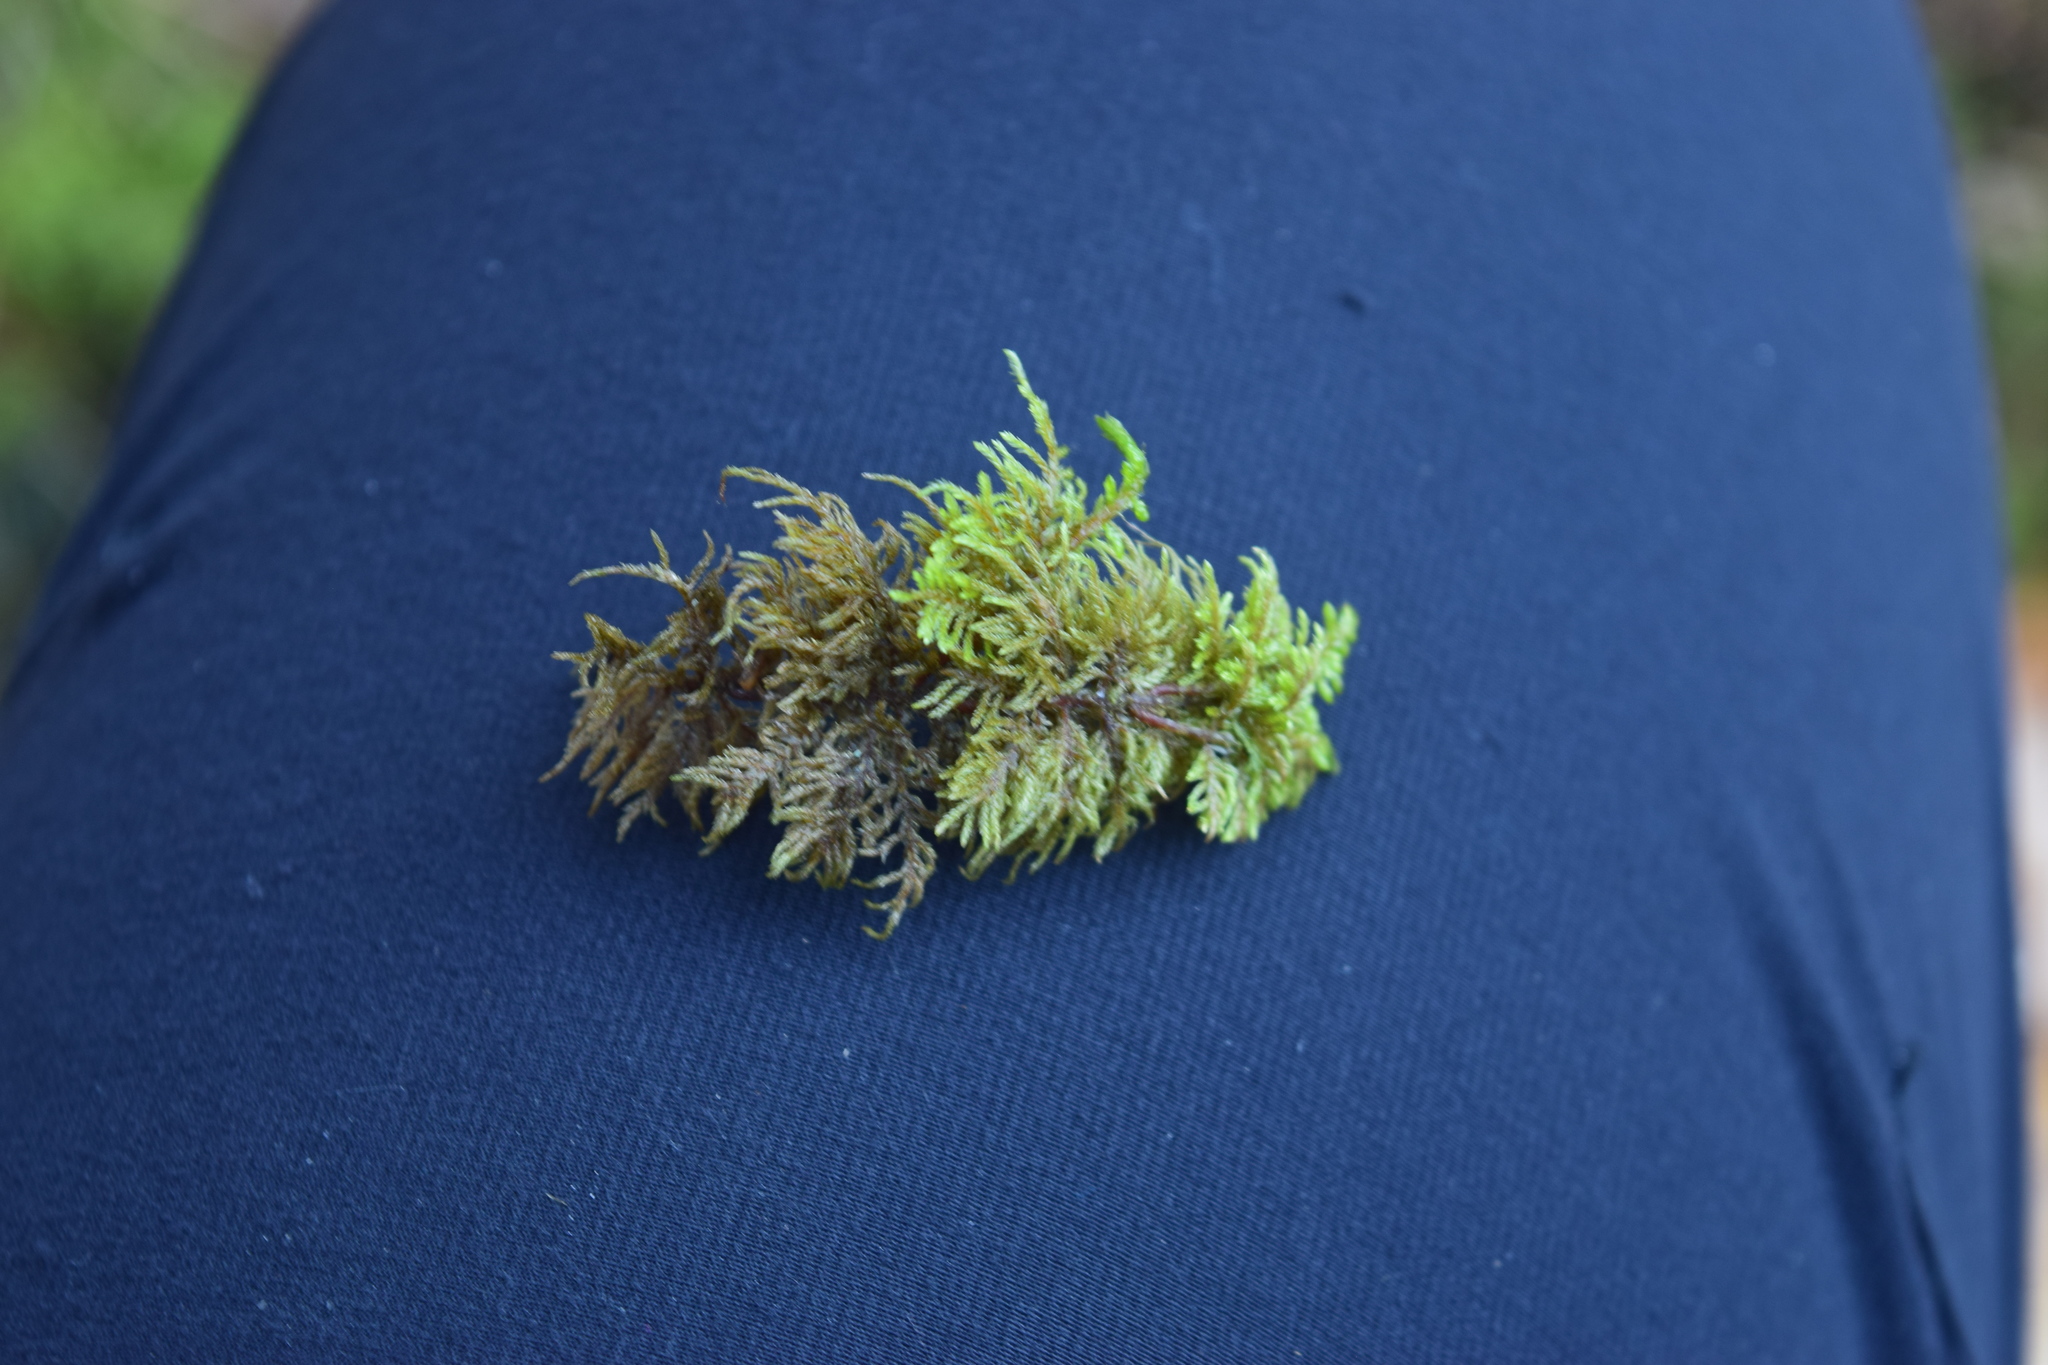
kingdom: Plantae
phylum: Bryophyta
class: Bryopsida
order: Hypnales
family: Hylocomiaceae
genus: Hylocomium
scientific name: Hylocomium splendens
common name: Stairstep moss
